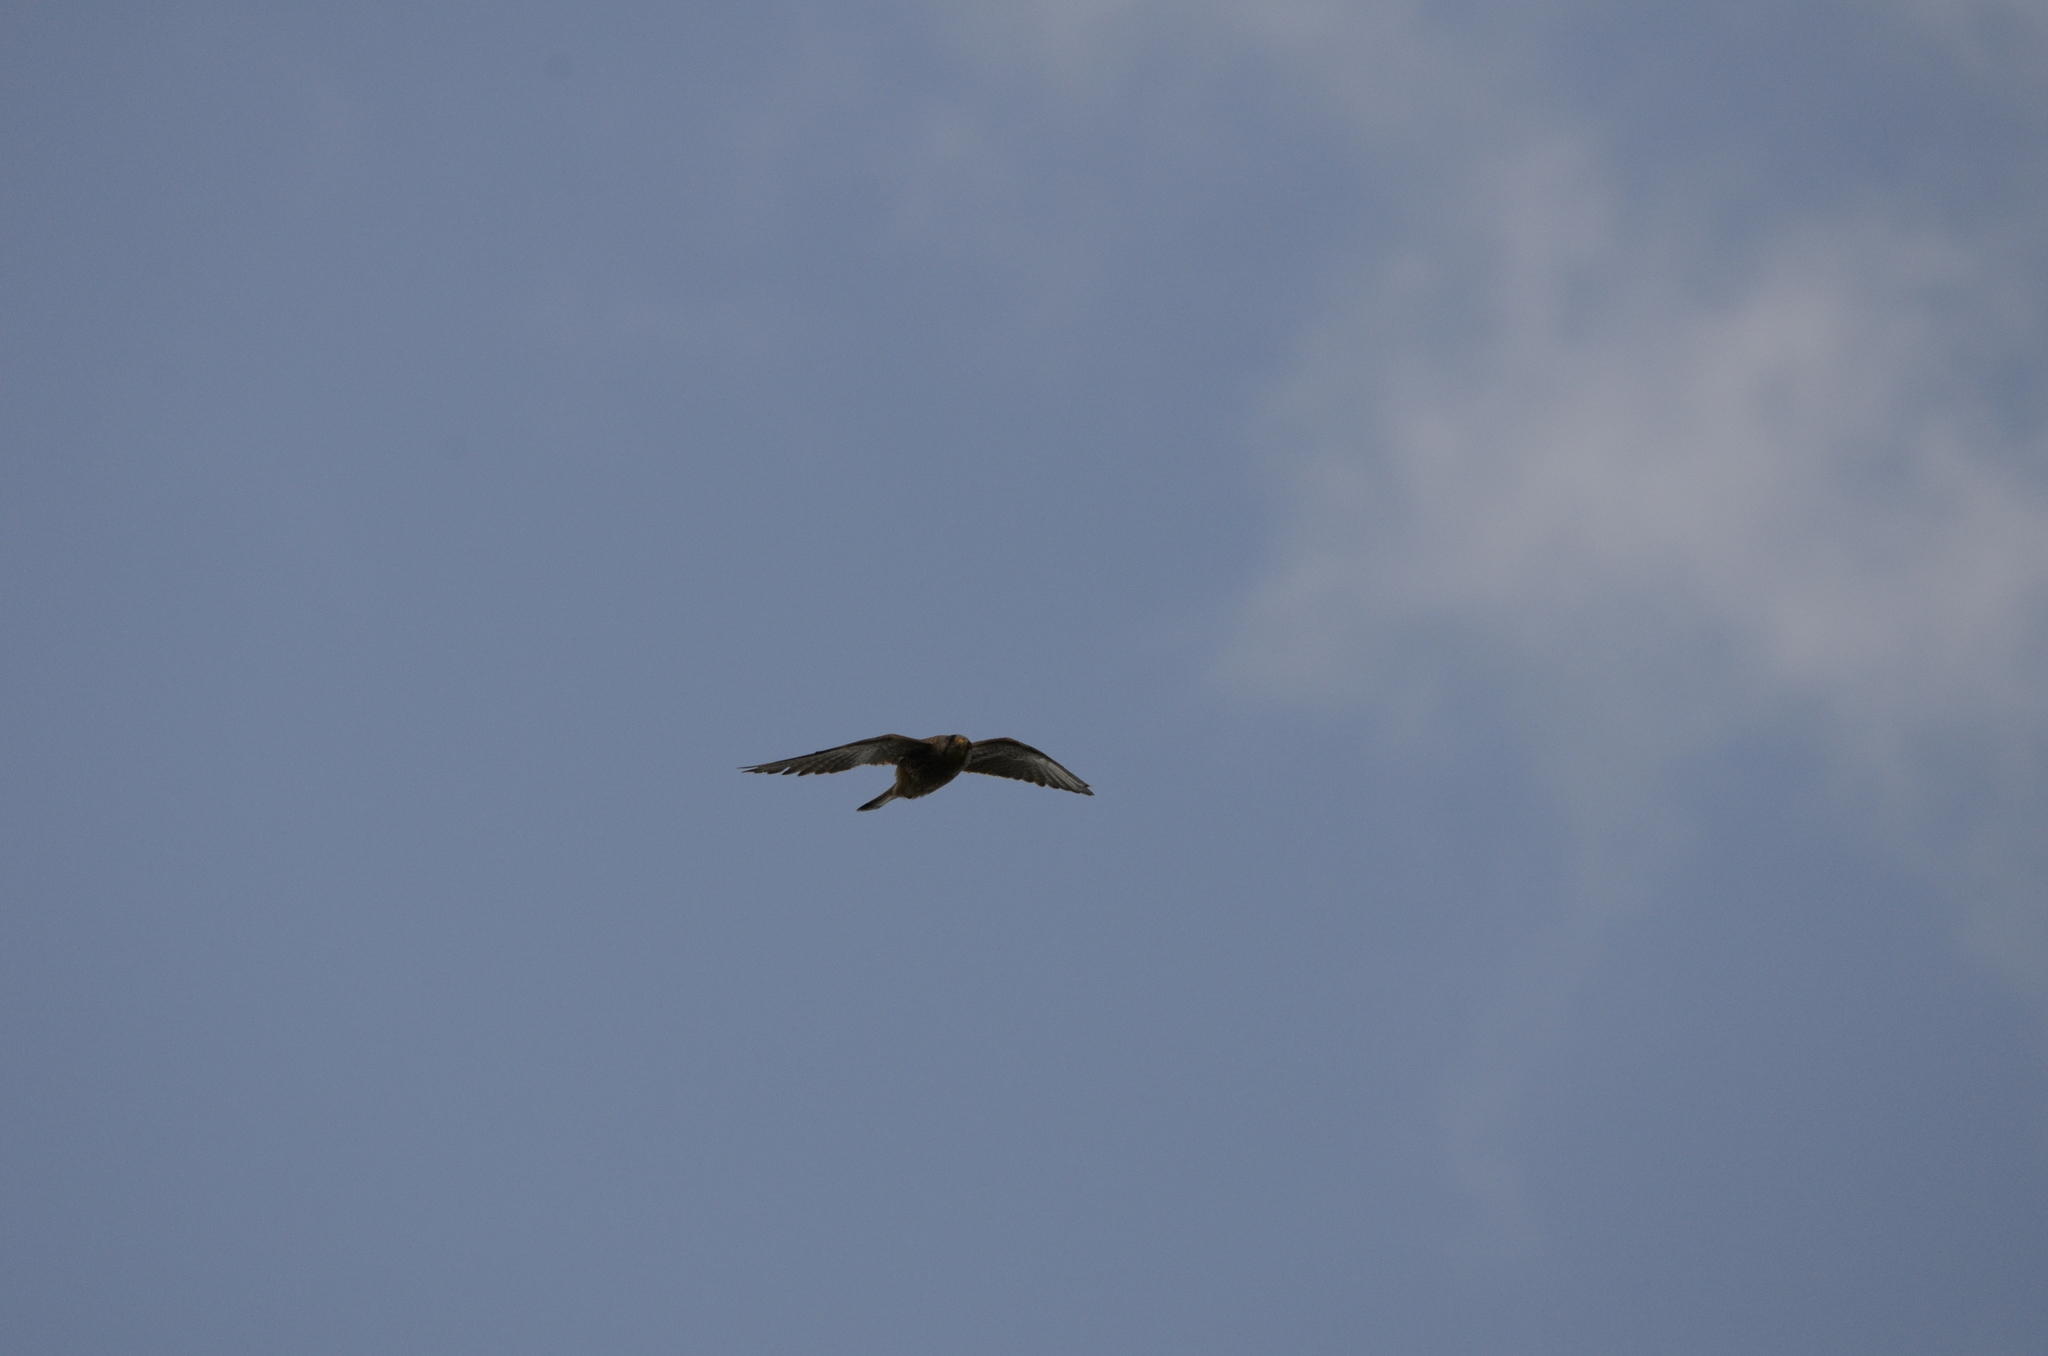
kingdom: Animalia
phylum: Chordata
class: Aves
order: Falconiformes
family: Falconidae
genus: Falco
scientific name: Falco tinnunculus
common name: Common kestrel
